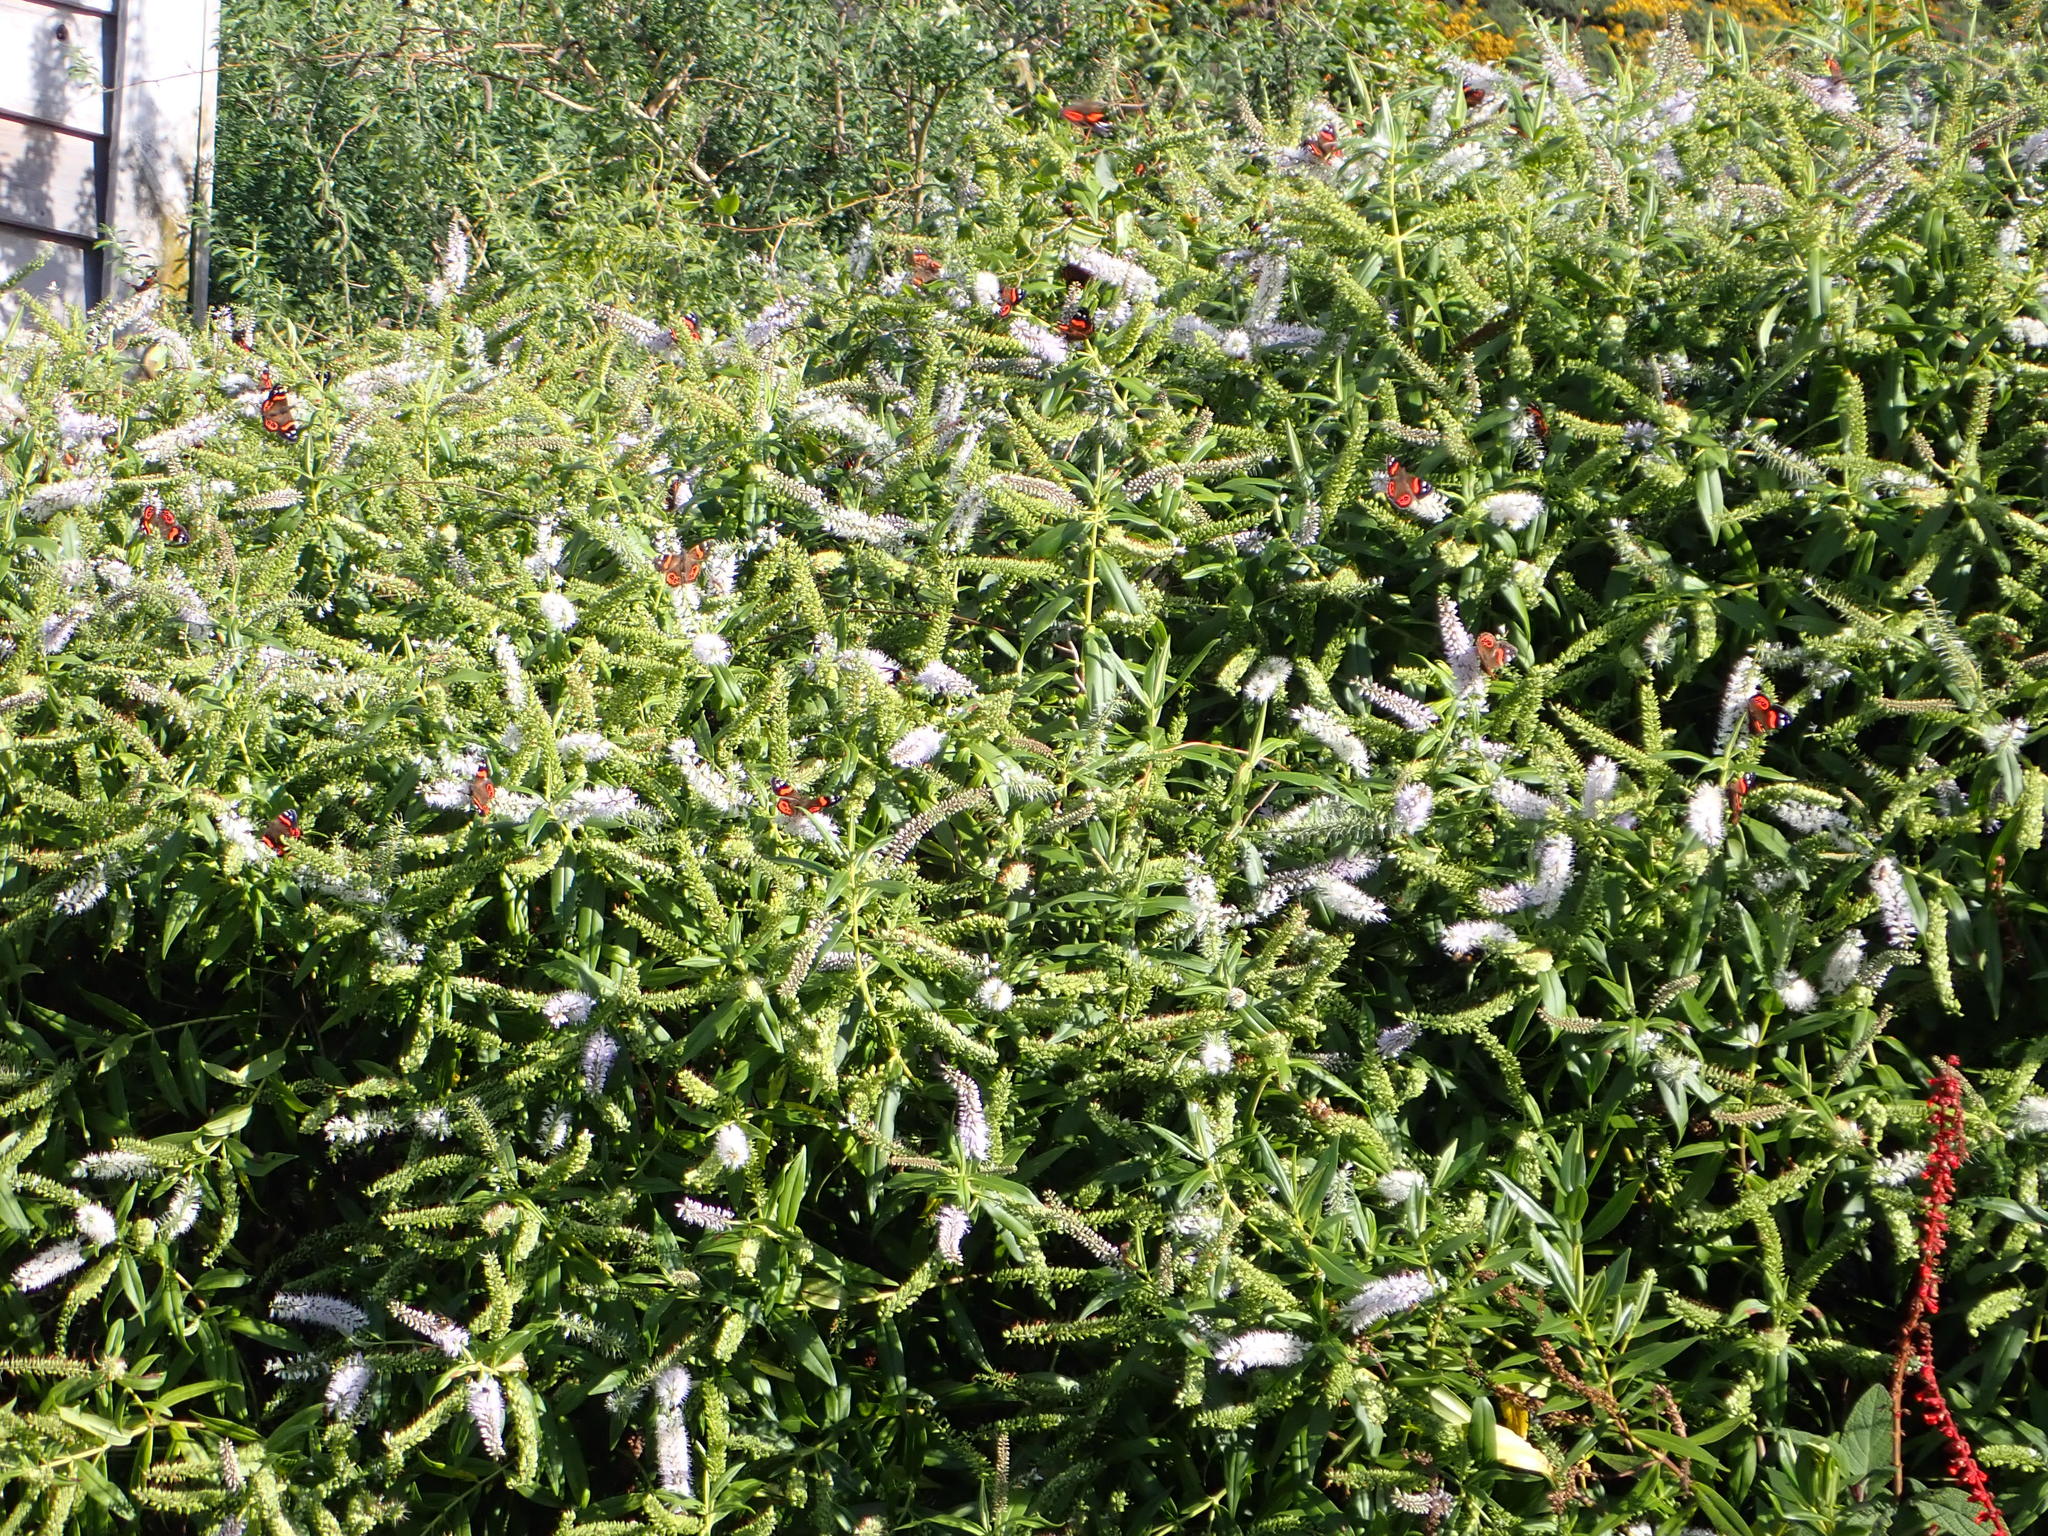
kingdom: Animalia
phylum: Arthropoda
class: Insecta
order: Lepidoptera
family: Nymphalidae
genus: Vanessa
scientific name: Vanessa gonerilla
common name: New zealand red admiral
